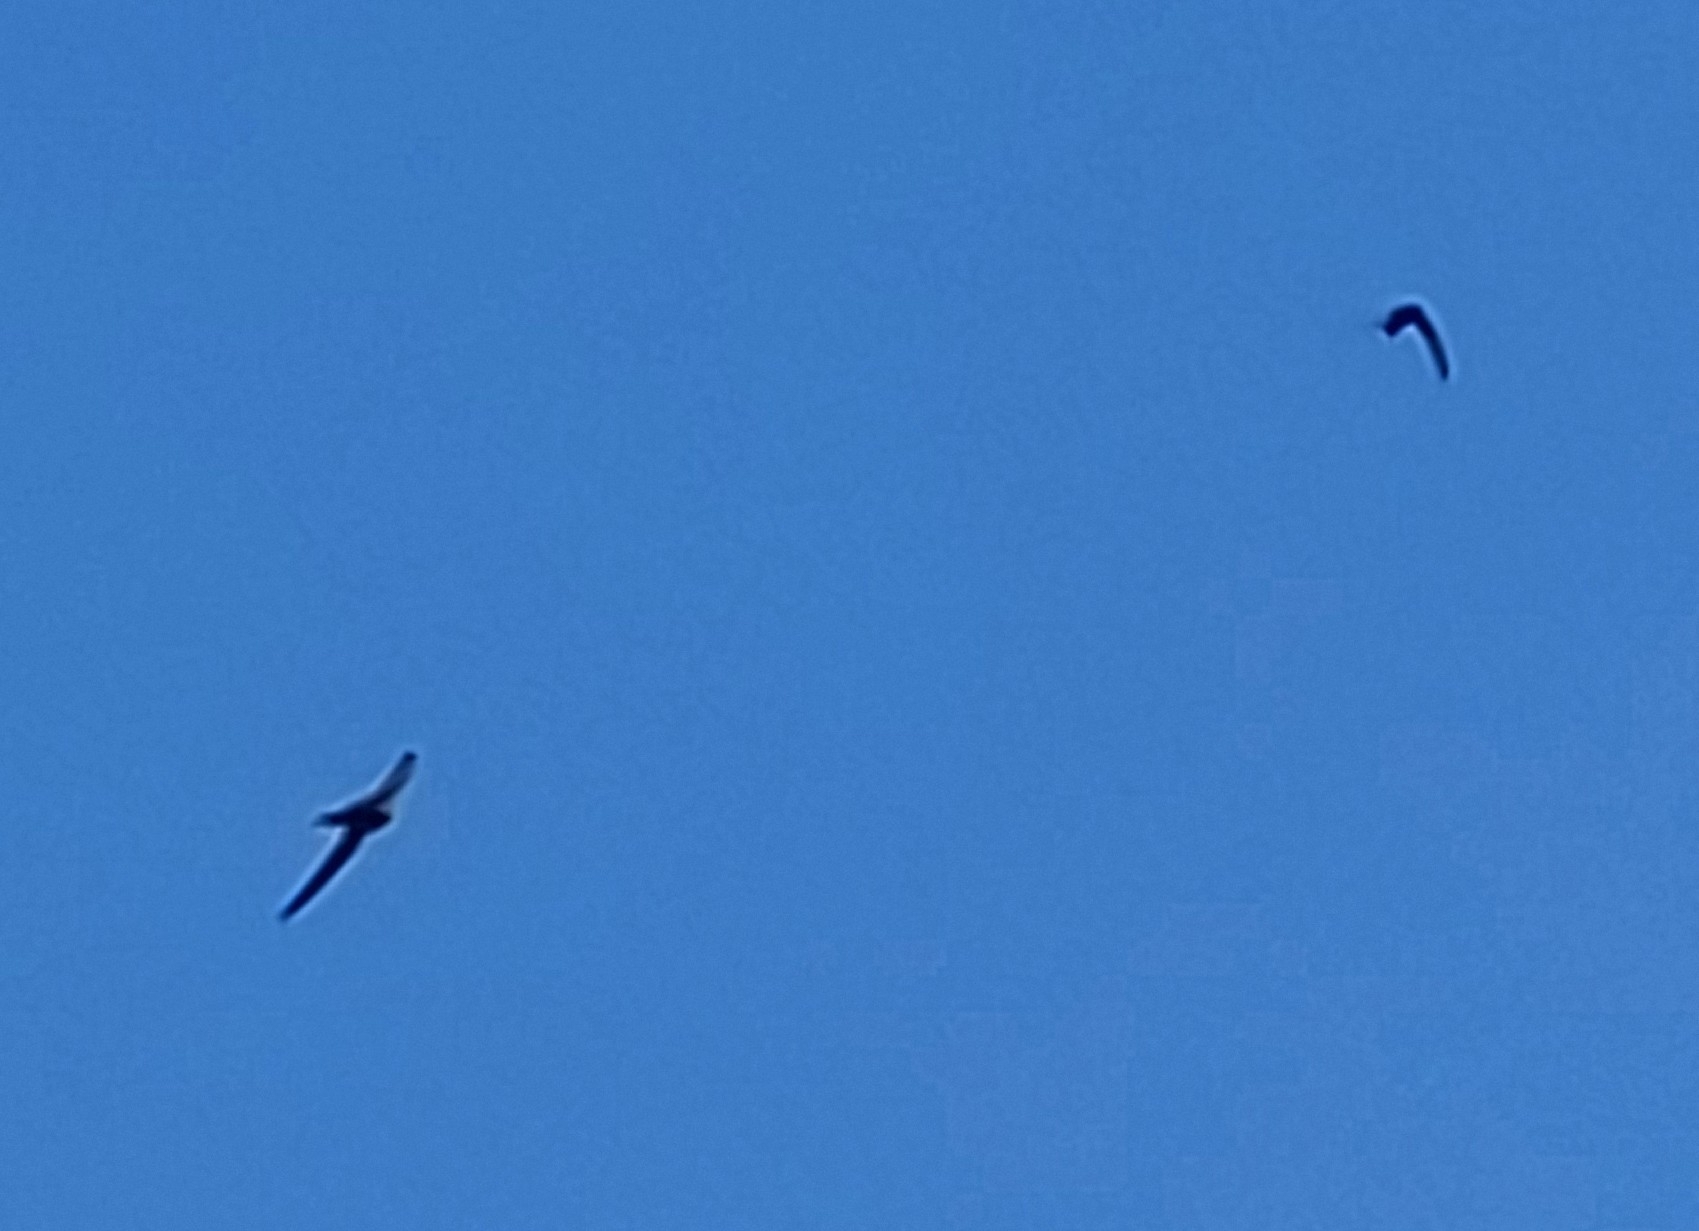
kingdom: Animalia
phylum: Chordata
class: Aves
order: Apodiformes
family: Apodidae
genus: Apus
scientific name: Apus apus
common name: Common swift
